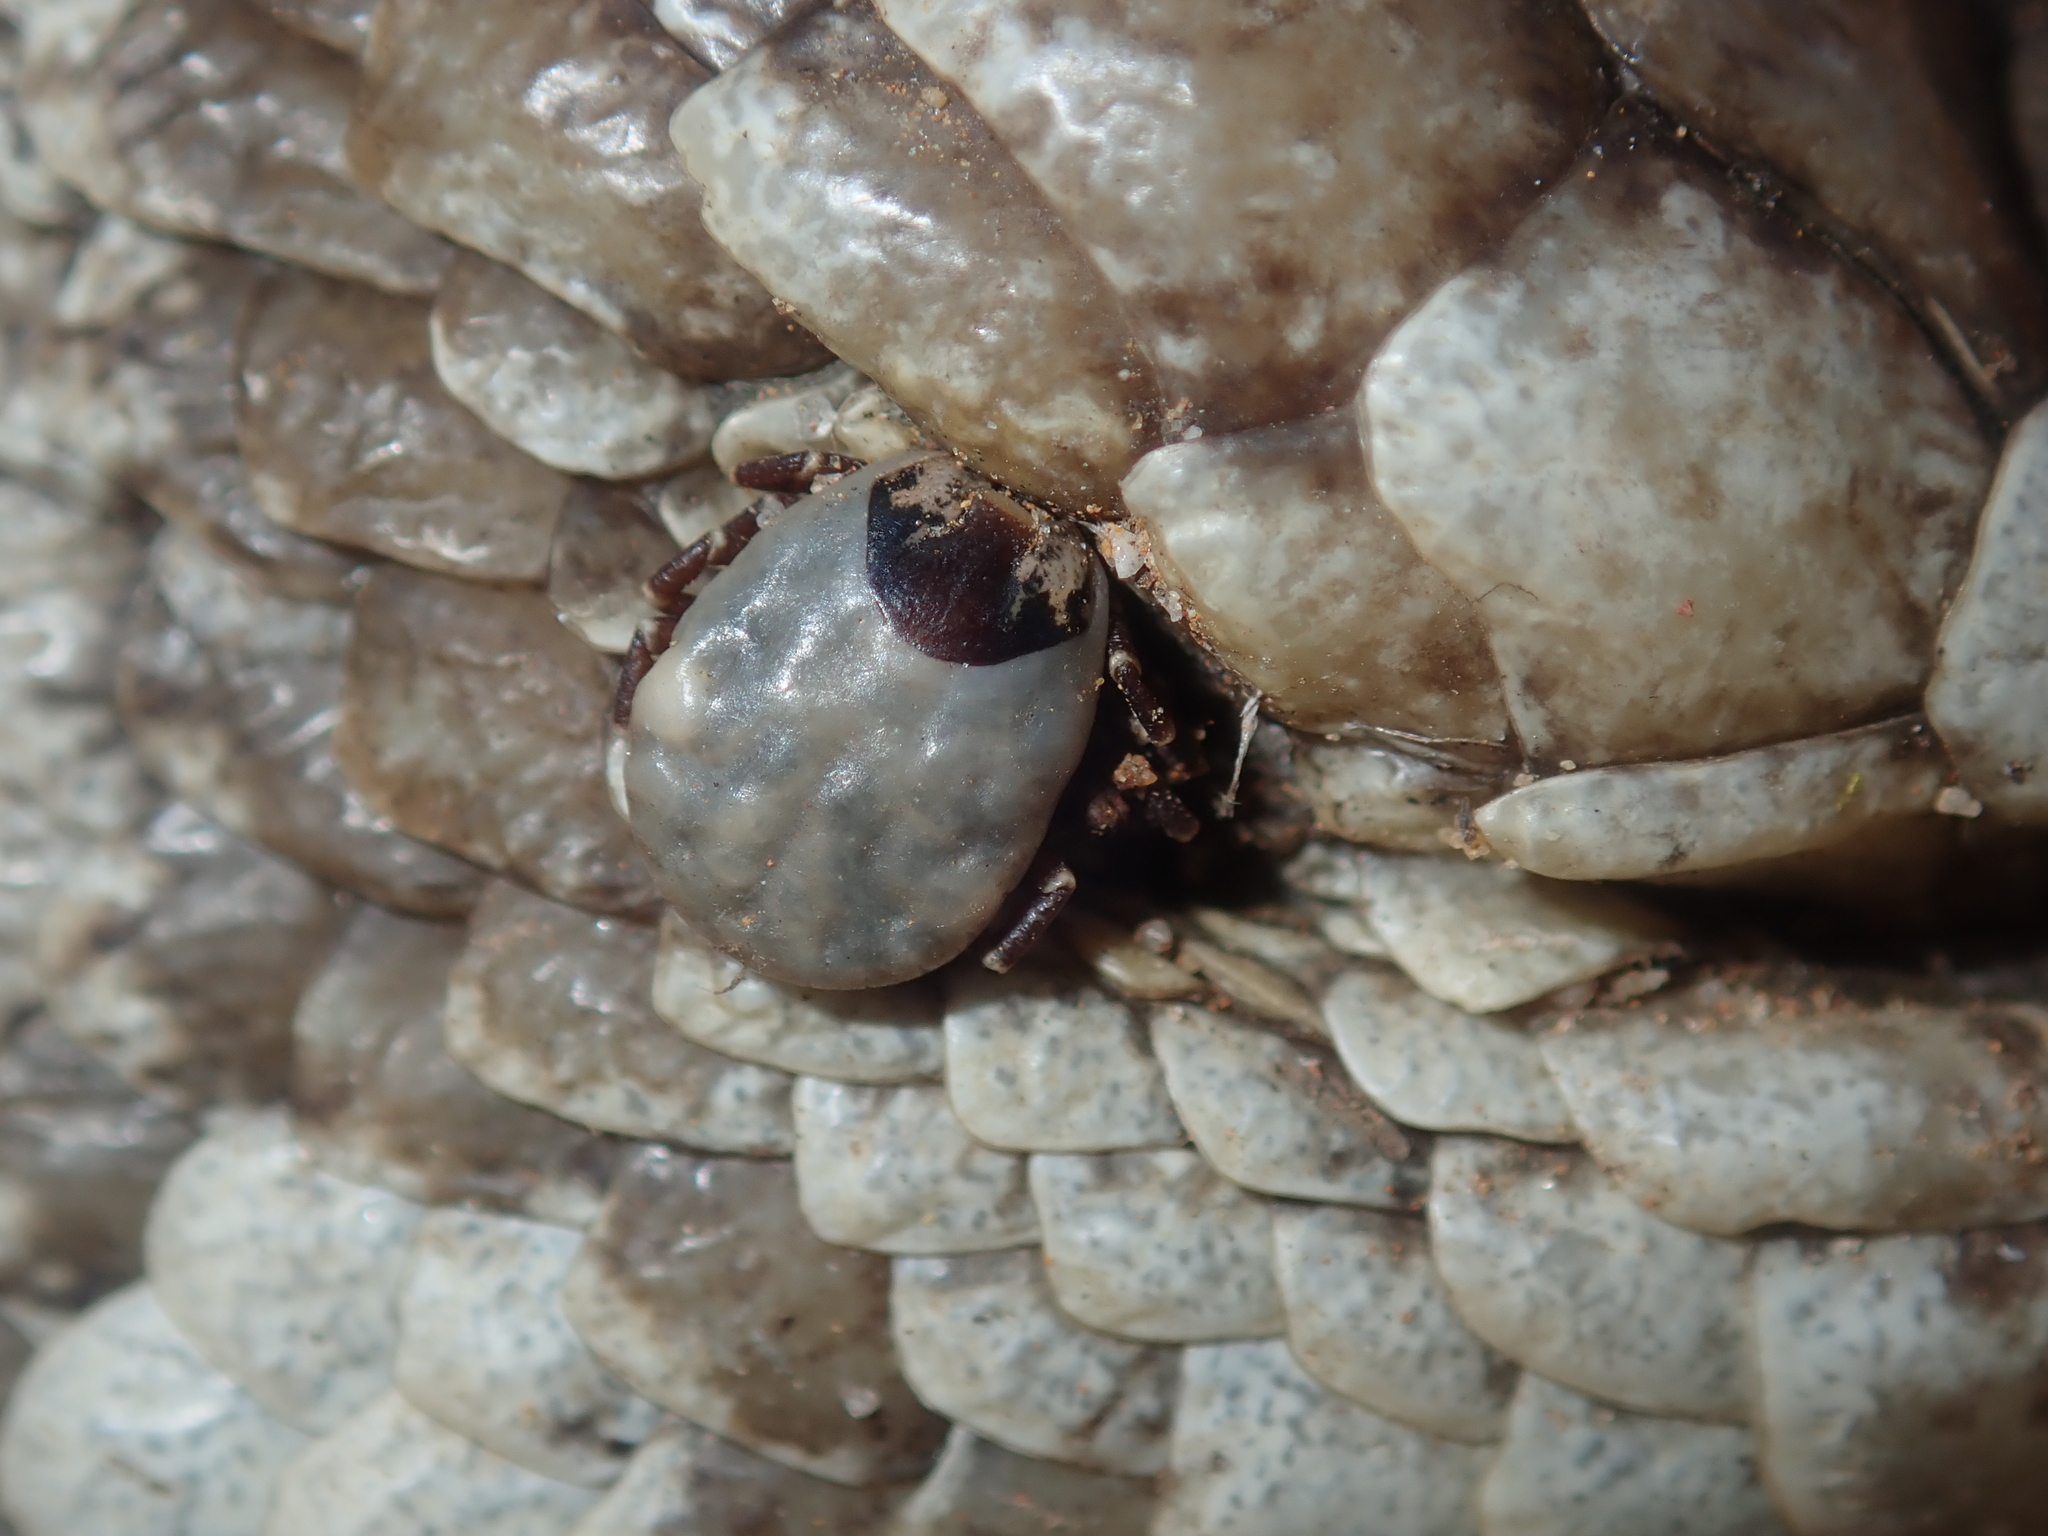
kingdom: Animalia
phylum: Arthropoda
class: Arachnida
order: Ixodida
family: Ixodidae
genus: Amblyomma
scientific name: Amblyomma albolimbatum
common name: Stumptailed lizard tick
